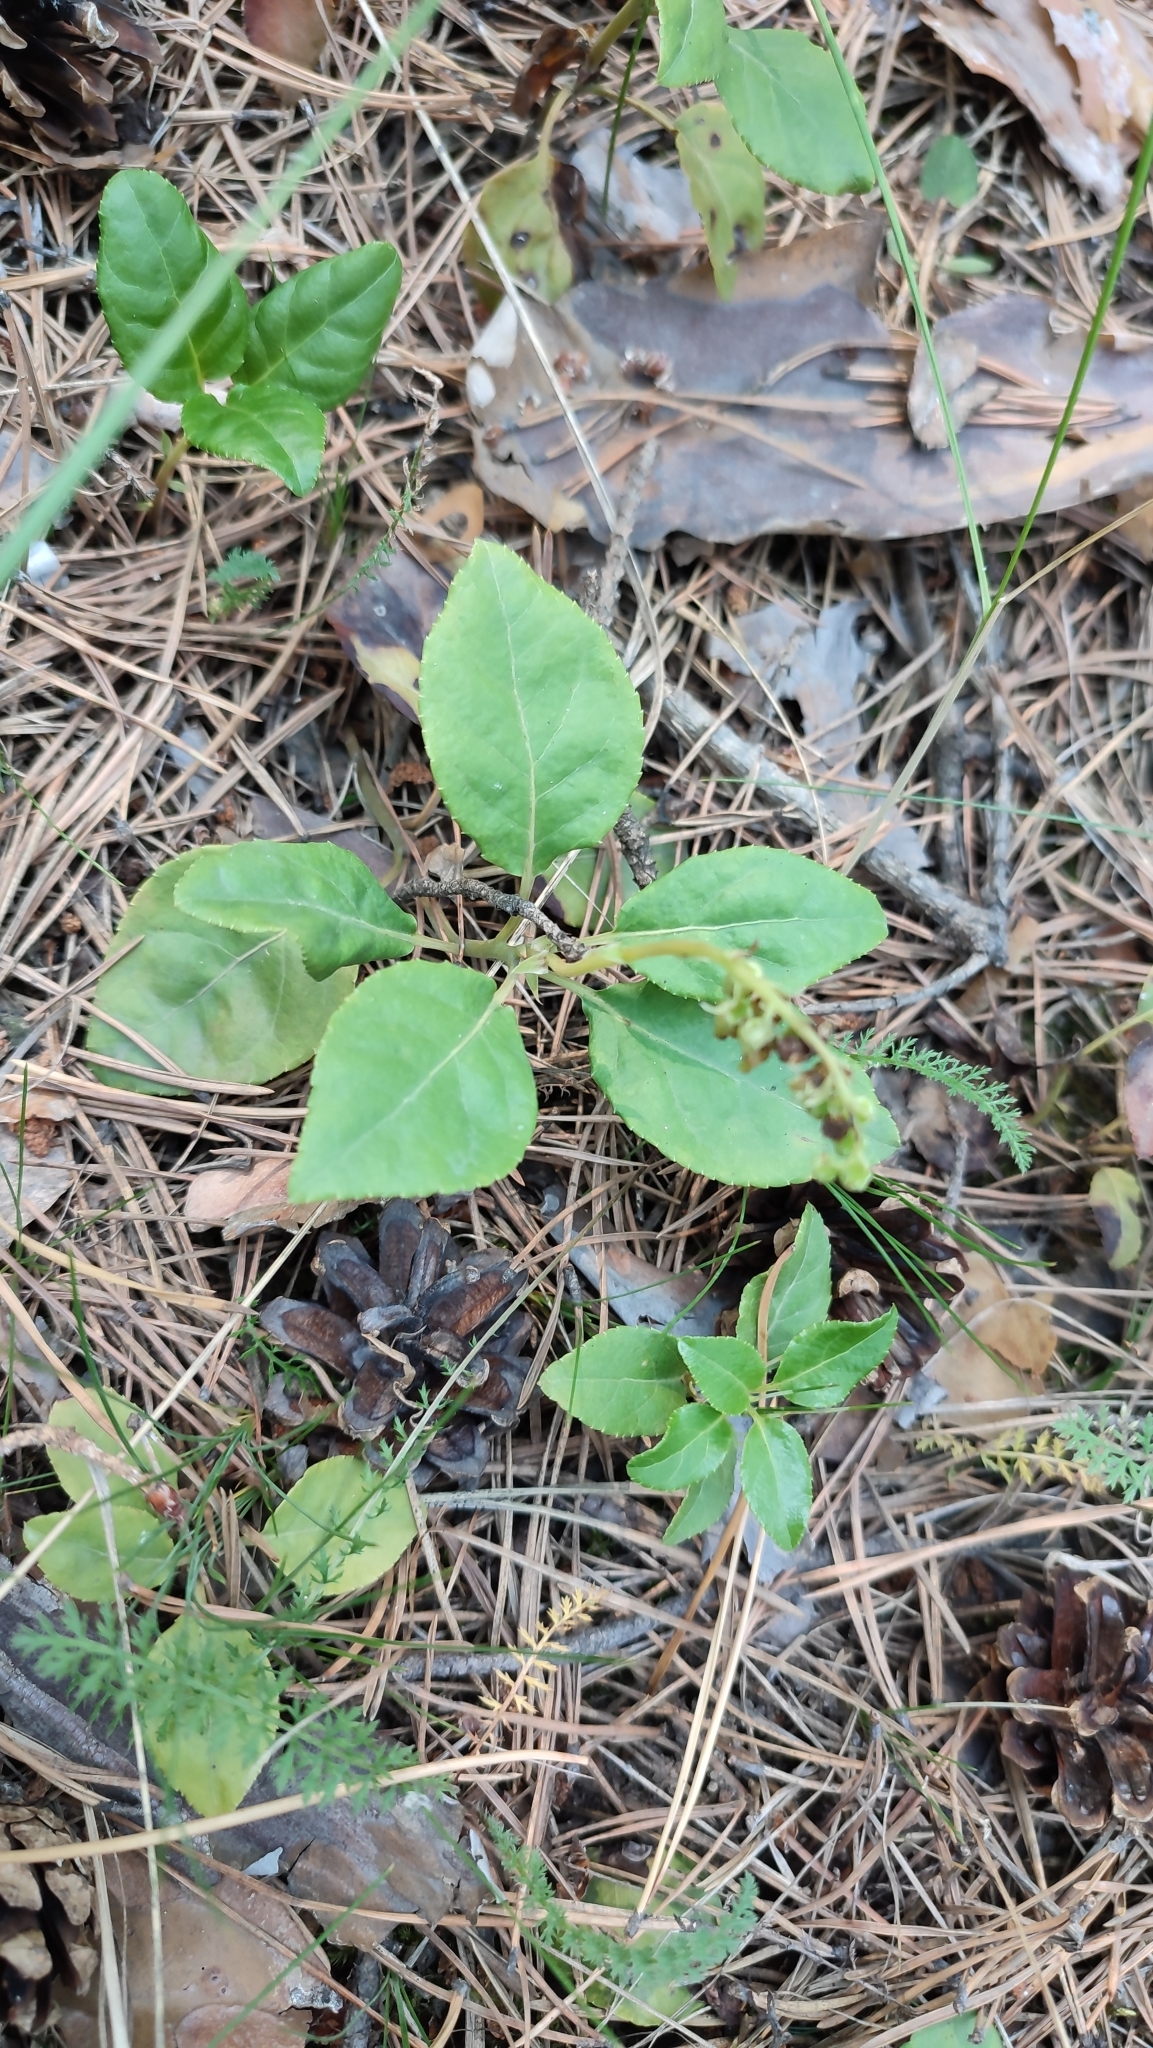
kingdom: Plantae
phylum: Tracheophyta
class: Magnoliopsida
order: Ericales
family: Ericaceae
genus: Orthilia
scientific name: Orthilia secunda
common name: One-sided orthilia
